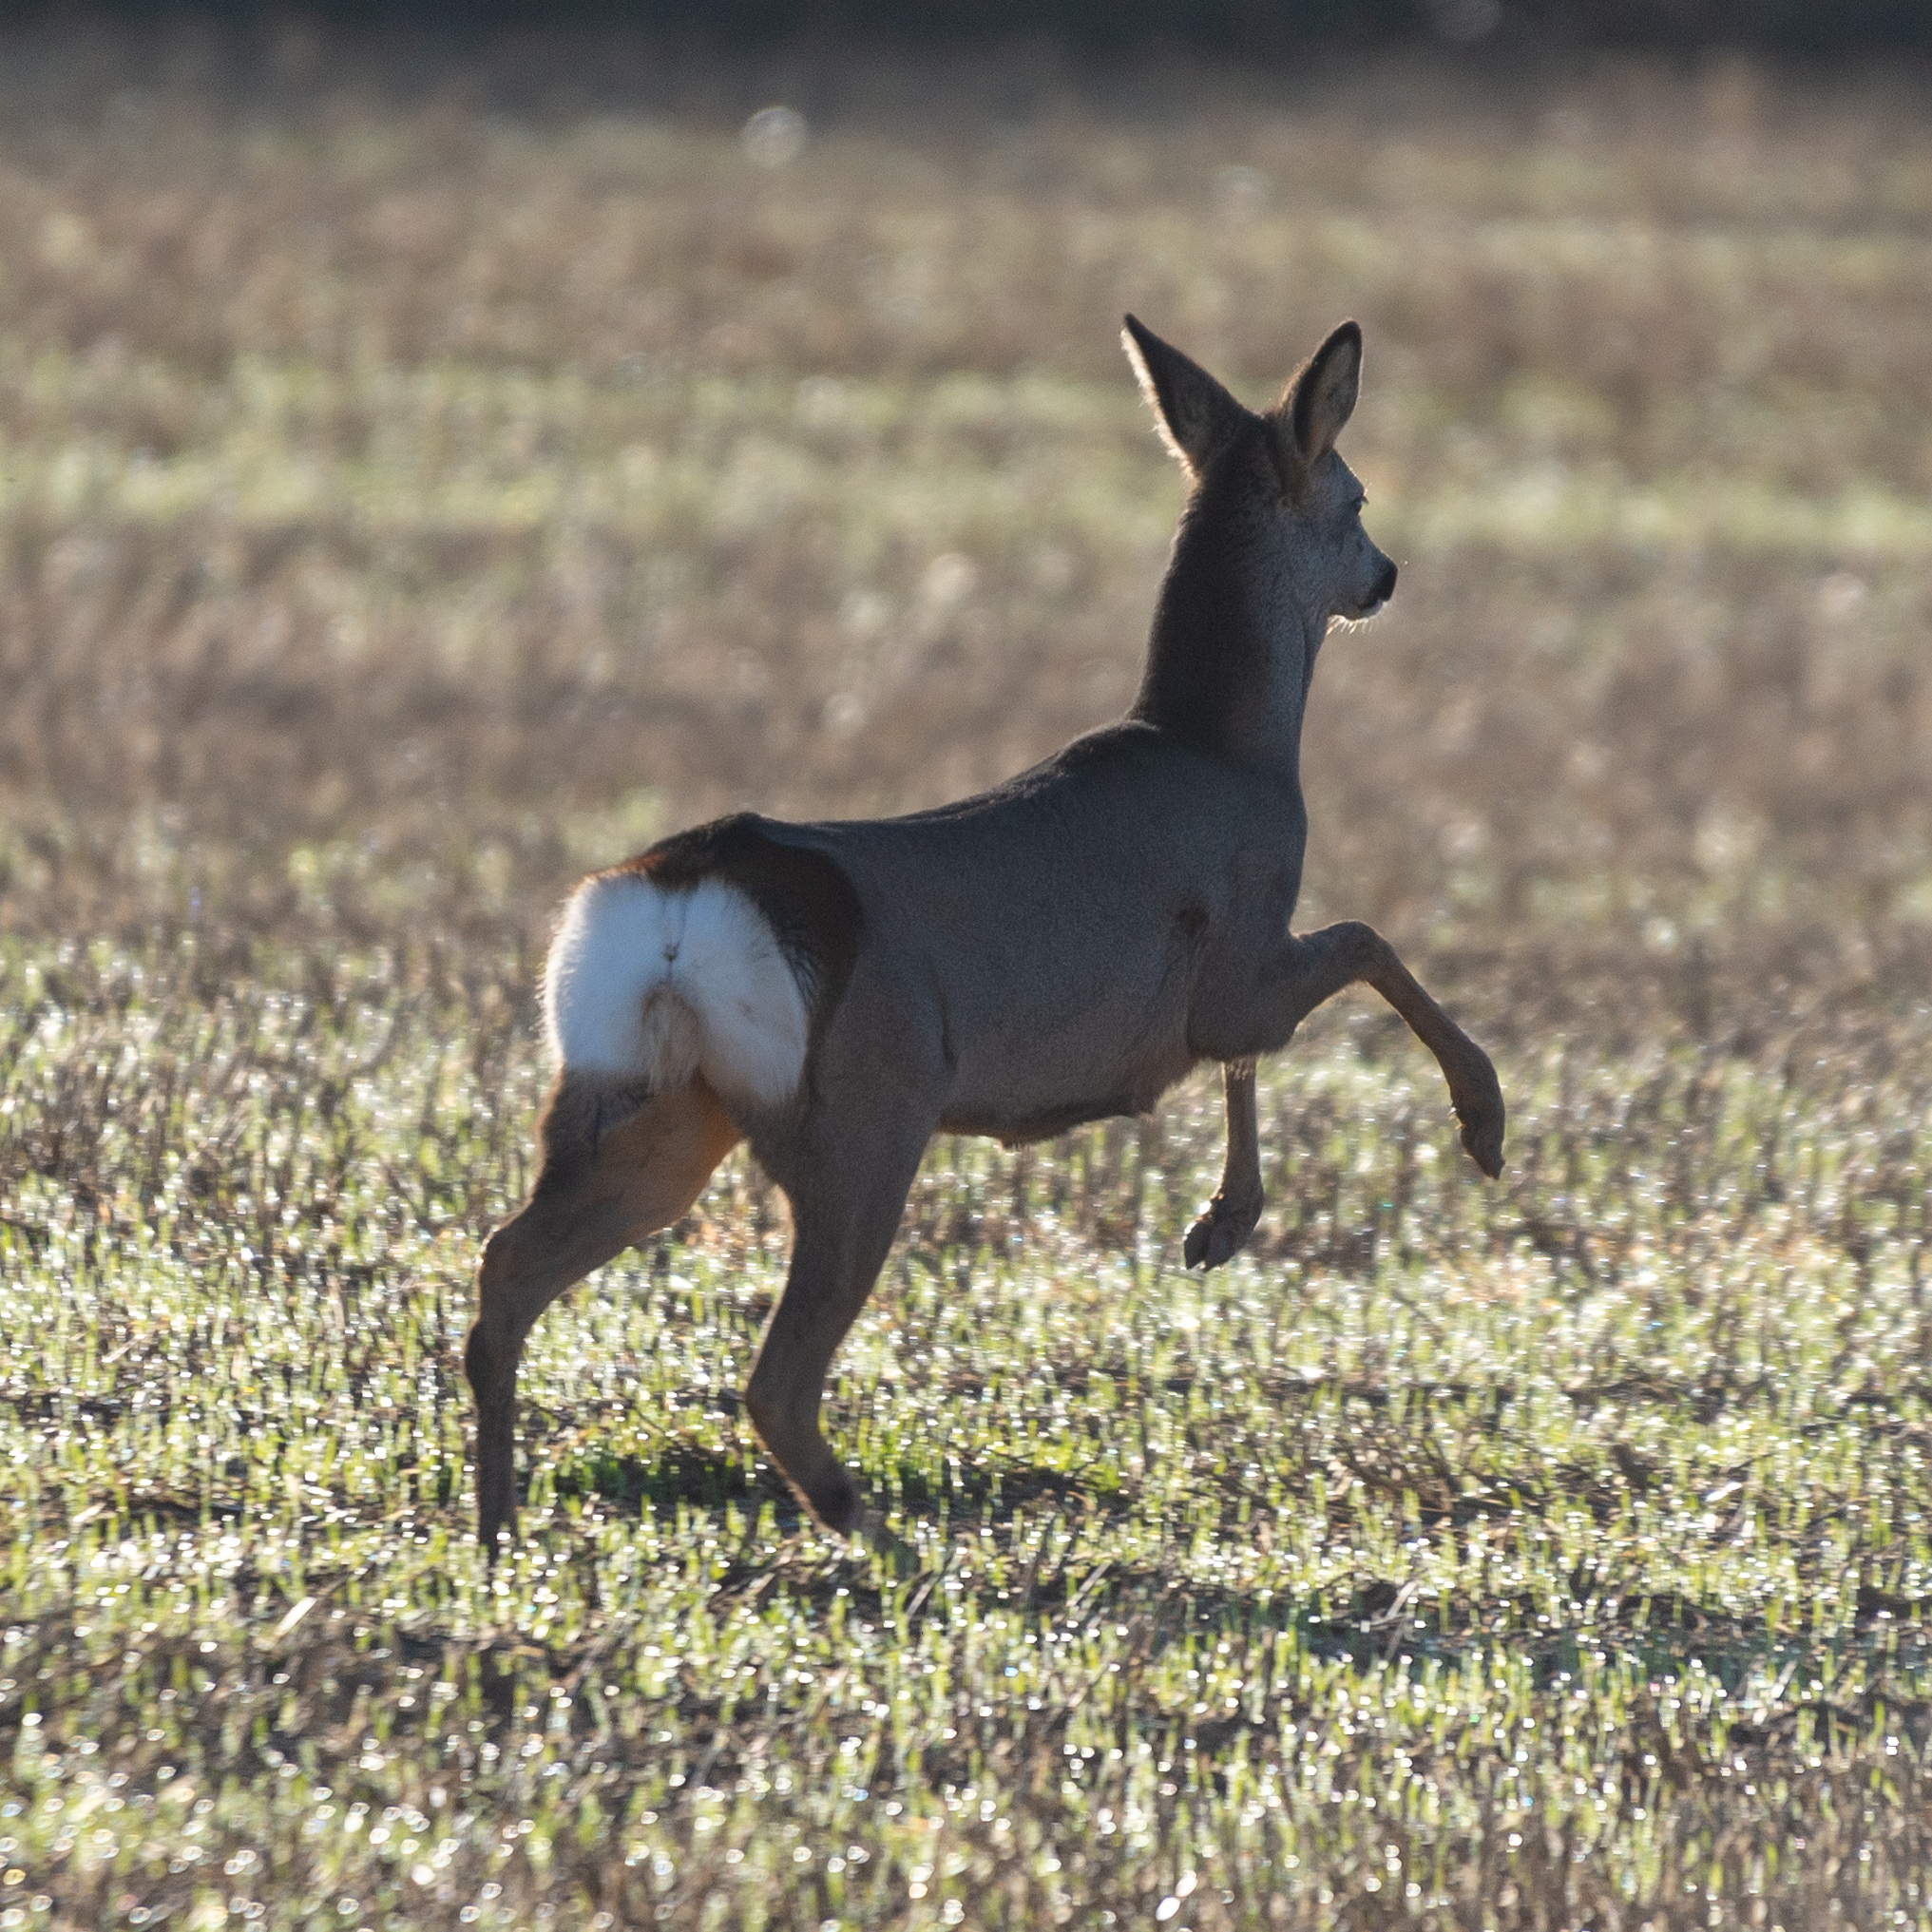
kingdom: Animalia
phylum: Chordata
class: Mammalia
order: Artiodactyla
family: Cervidae
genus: Capreolus
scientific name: Capreolus capreolus
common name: Western roe deer
